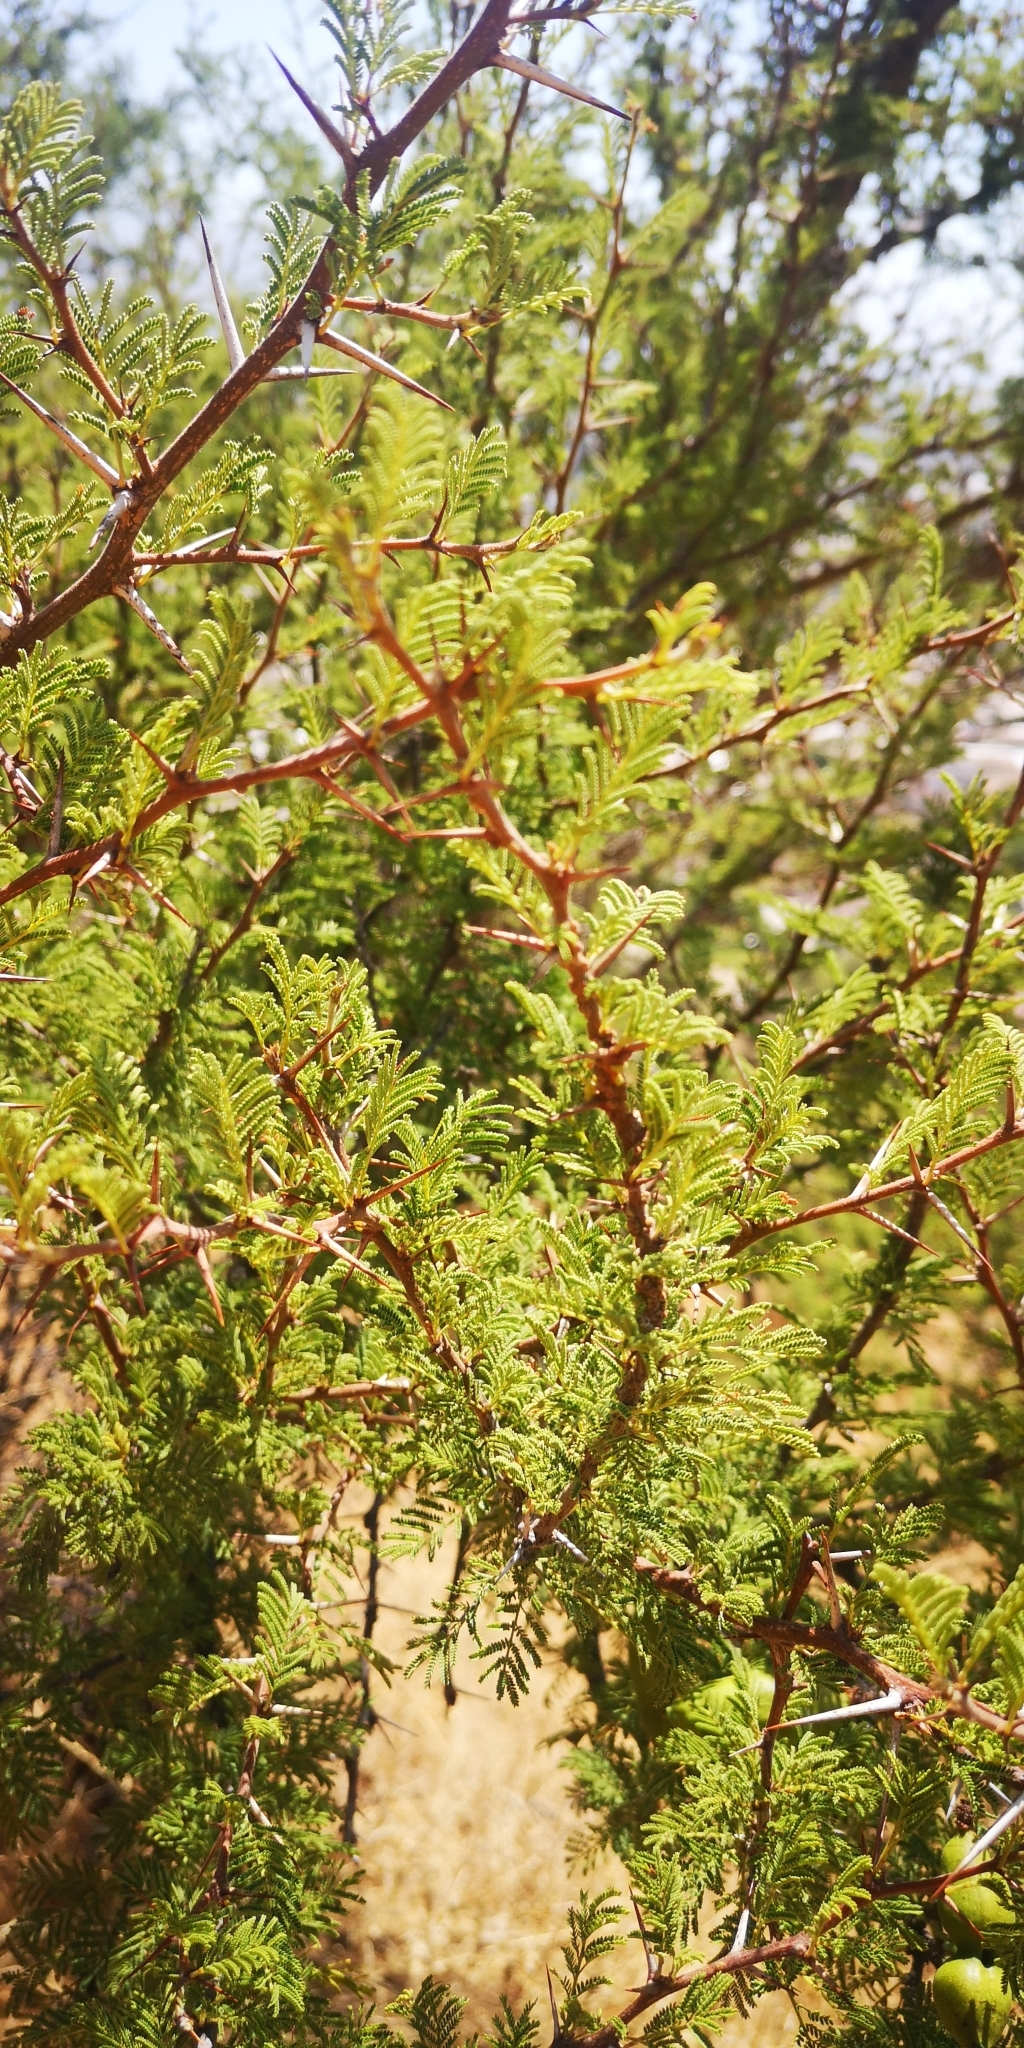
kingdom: Plantae
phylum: Tracheophyta
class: Magnoliopsida
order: Fabales
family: Fabaceae
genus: Vachellia
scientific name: Vachellia caven
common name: Roman cassie
